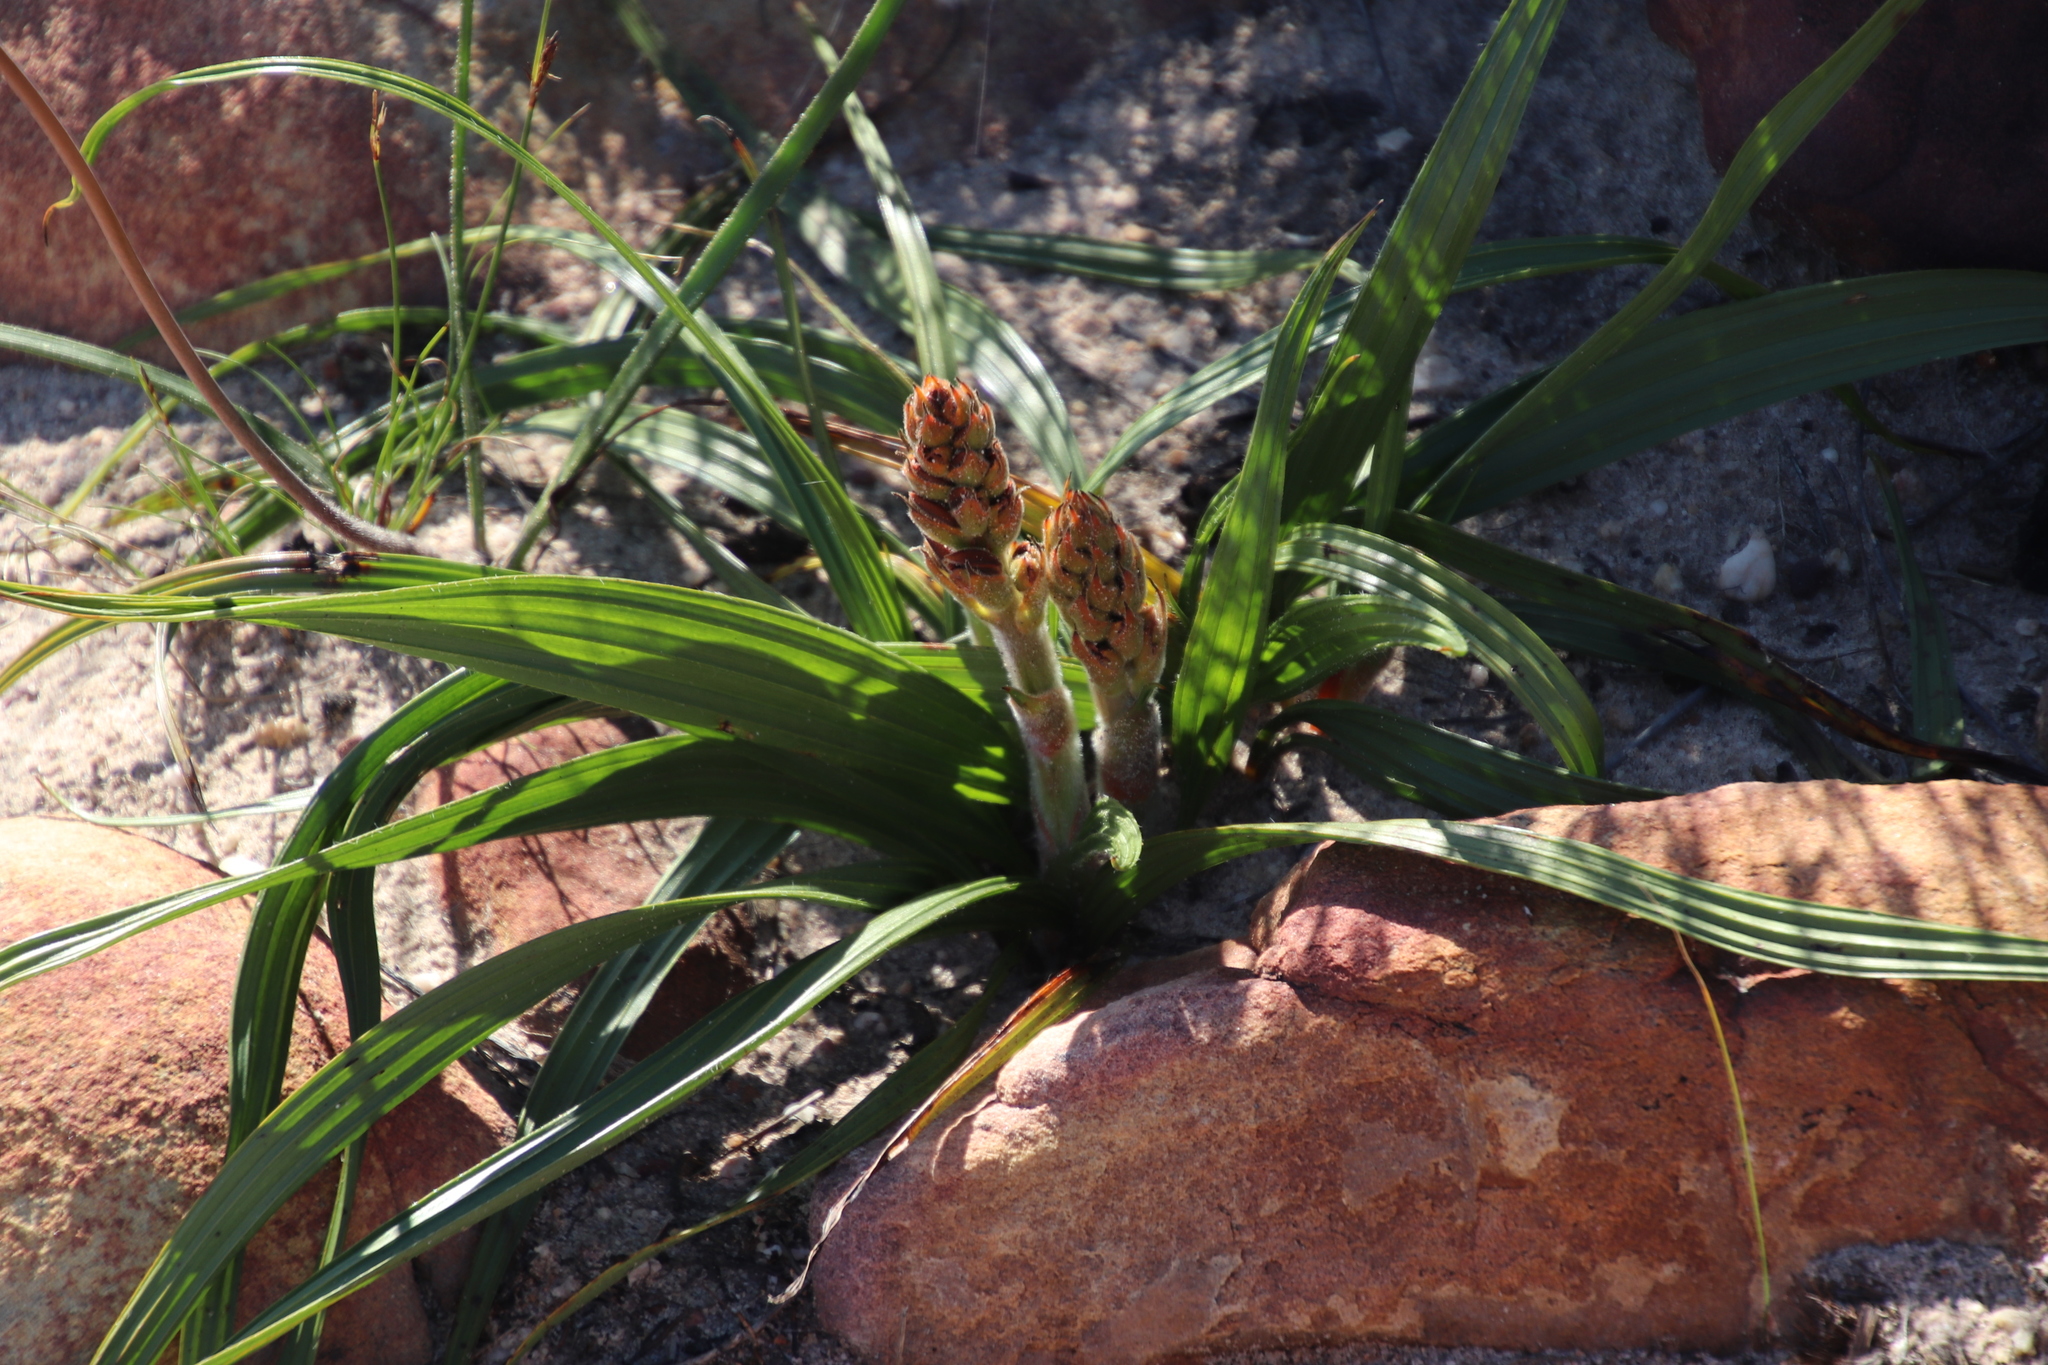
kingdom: Plantae
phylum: Tracheophyta
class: Liliopsida
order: Commelinales
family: Haemodoraceae
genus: Wachendorfia
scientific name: Wachendorfia paniculata
